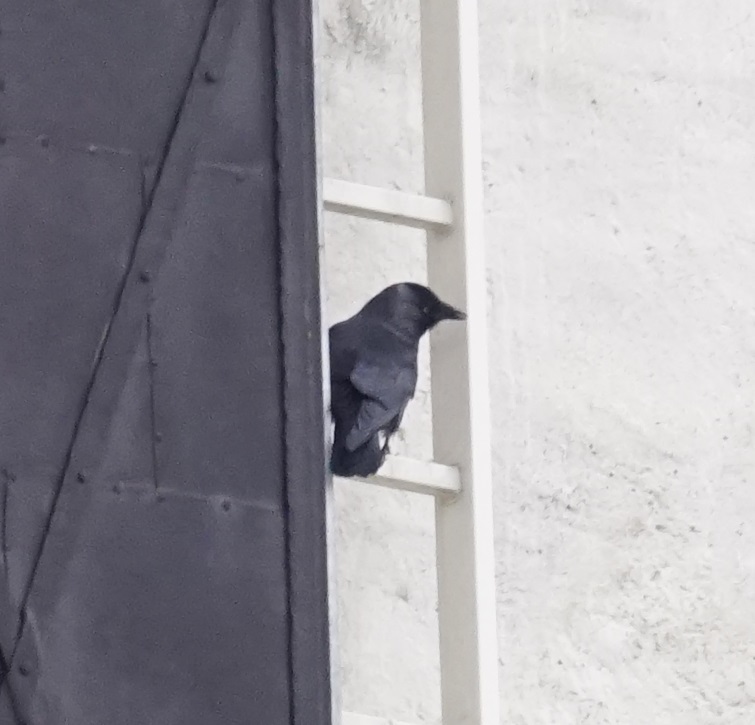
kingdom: Animalia
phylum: Chordata
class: Aves
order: Passeriformes
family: Corvidae
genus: Coloeus
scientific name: Coloeus monedula
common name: Western jackdaw
